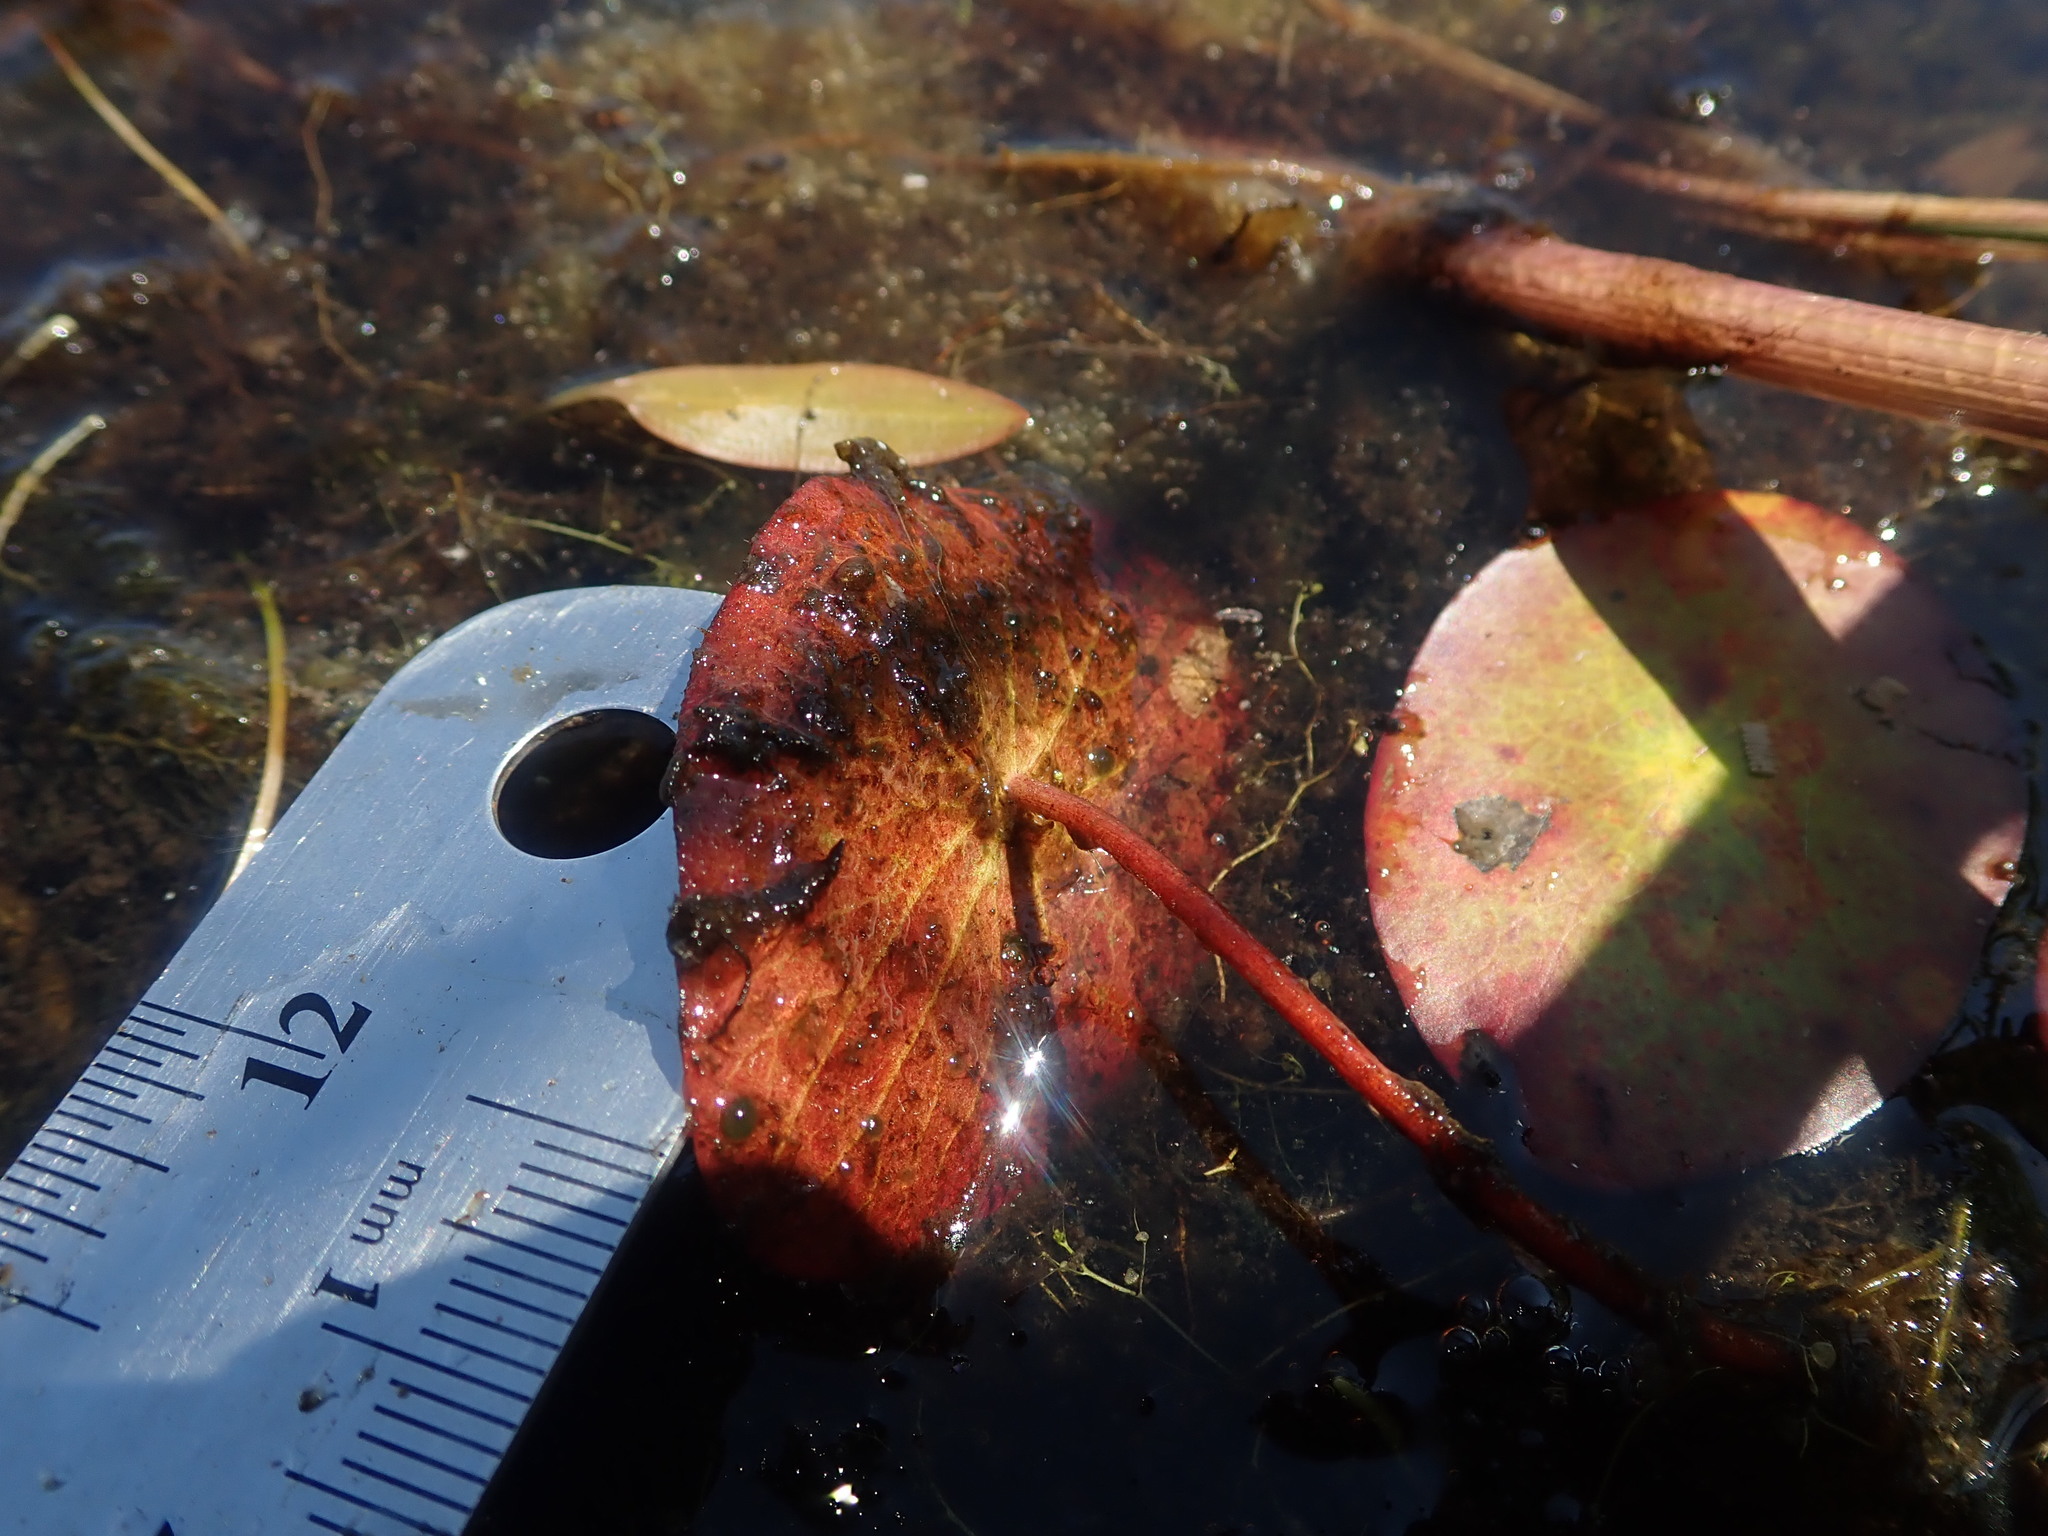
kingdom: Plantae
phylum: Tracheophyta
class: Magnoliopsida
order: Nymphaeales
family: Cabombaceae
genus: Brasenia
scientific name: Brasenia schreberi
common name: Water-shield
